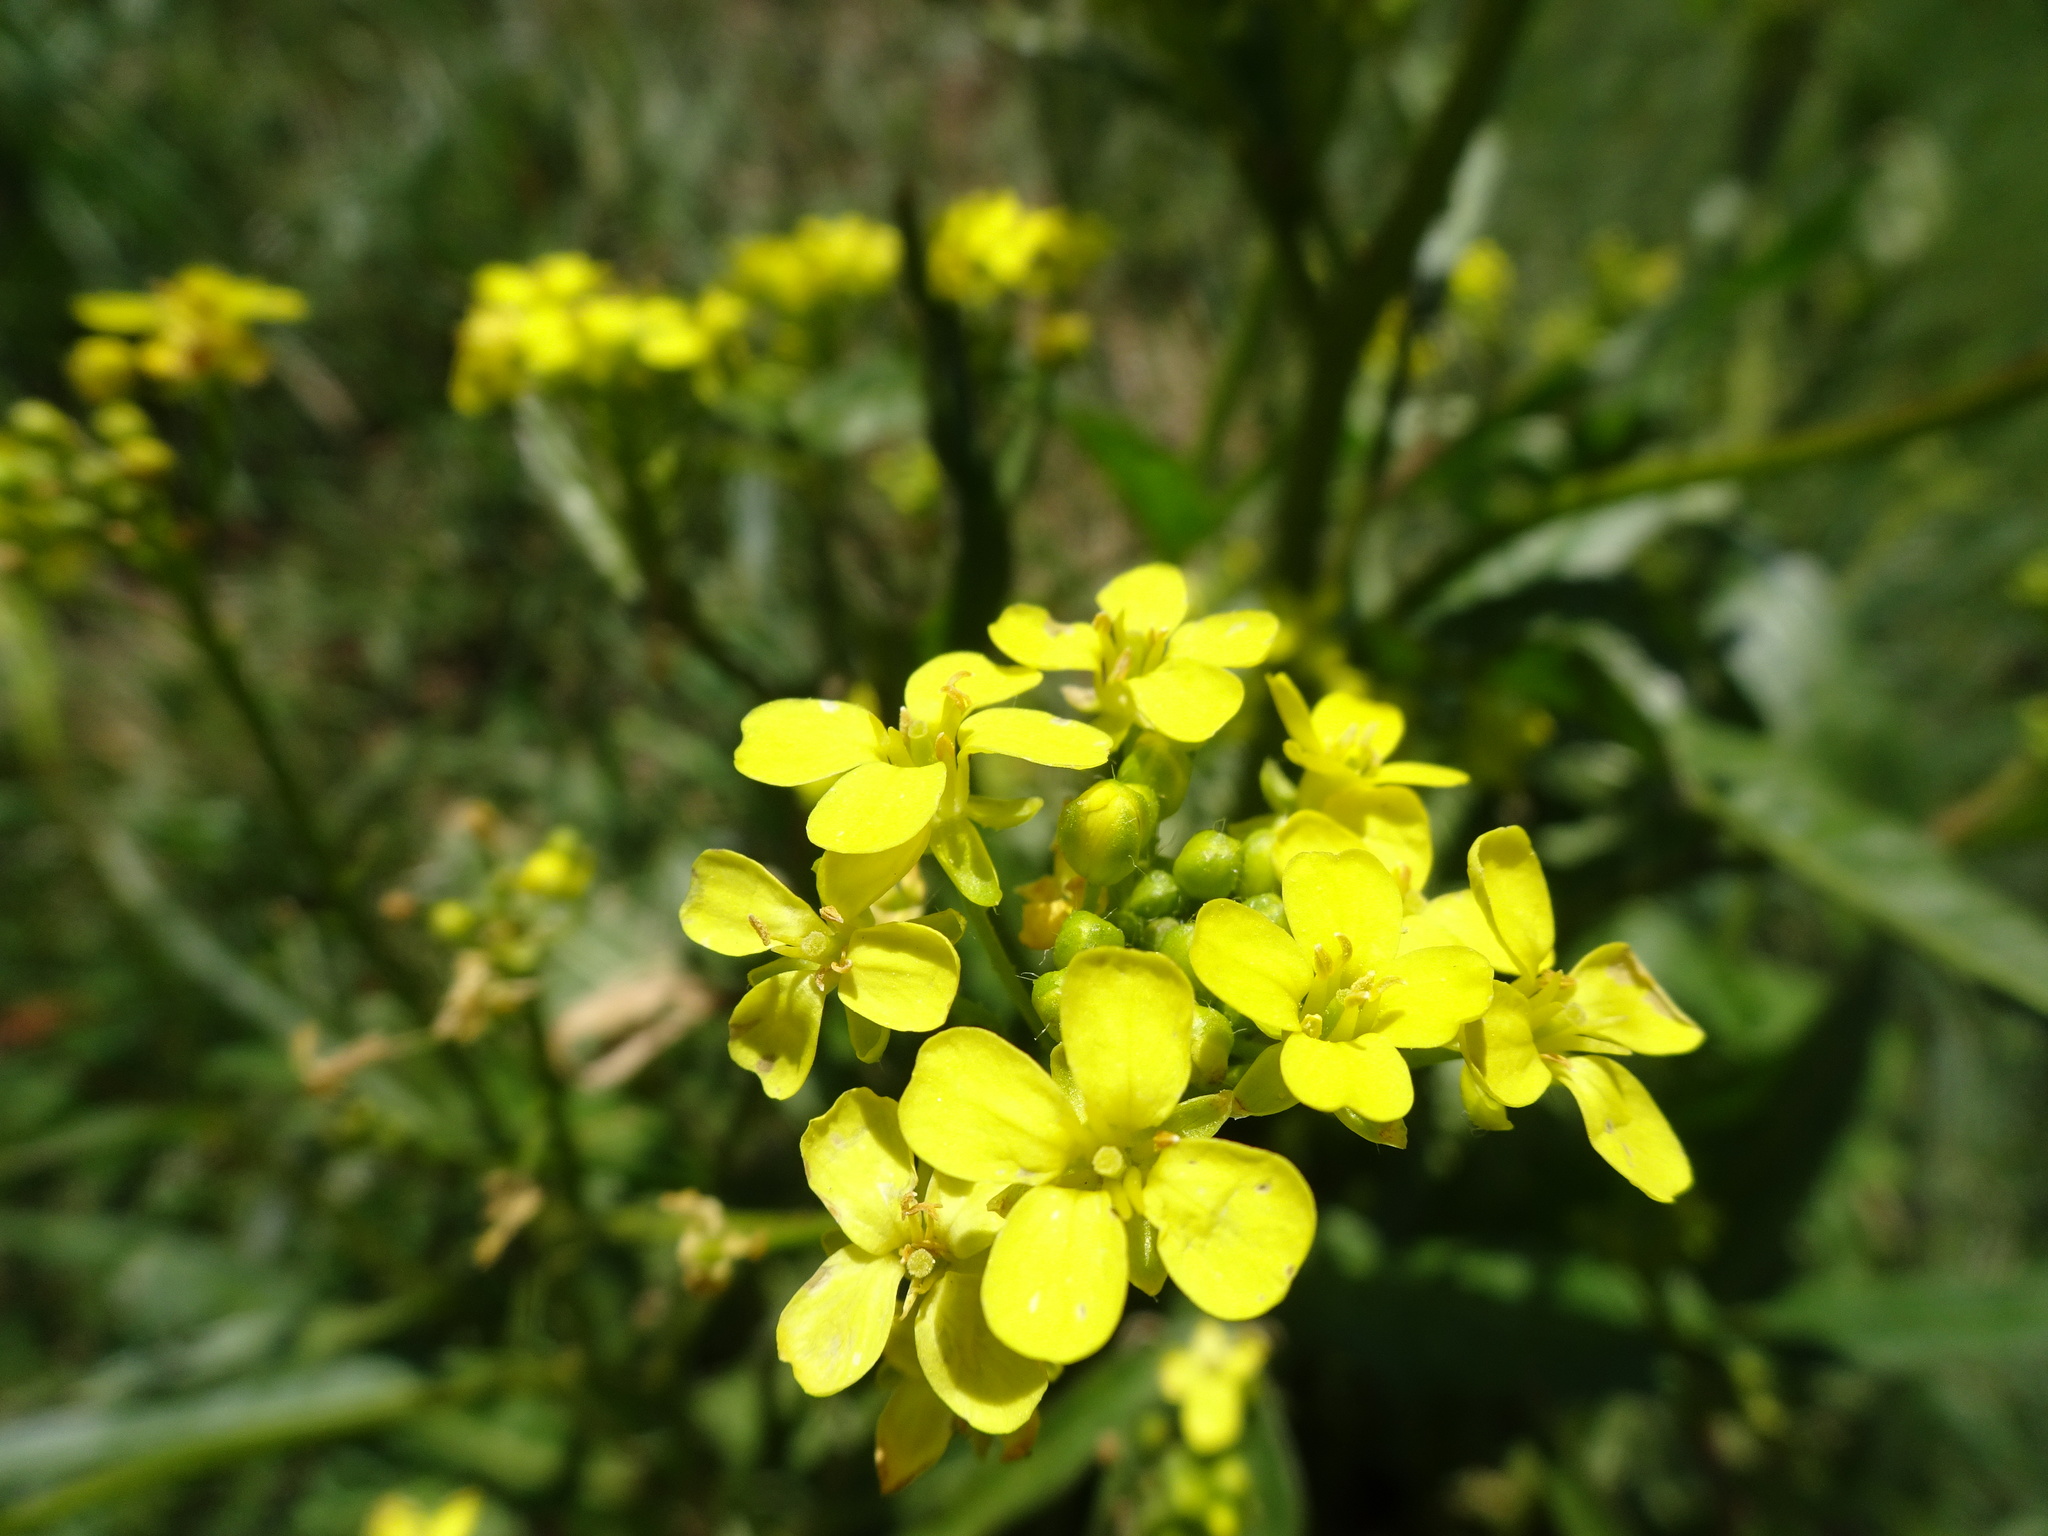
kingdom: Plantae
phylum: Tracheophyta
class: Magnoliopsida
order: Brassicales
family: Brassicaceae
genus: Bunias
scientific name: Bunias orientalis
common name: Warty-cabbage
